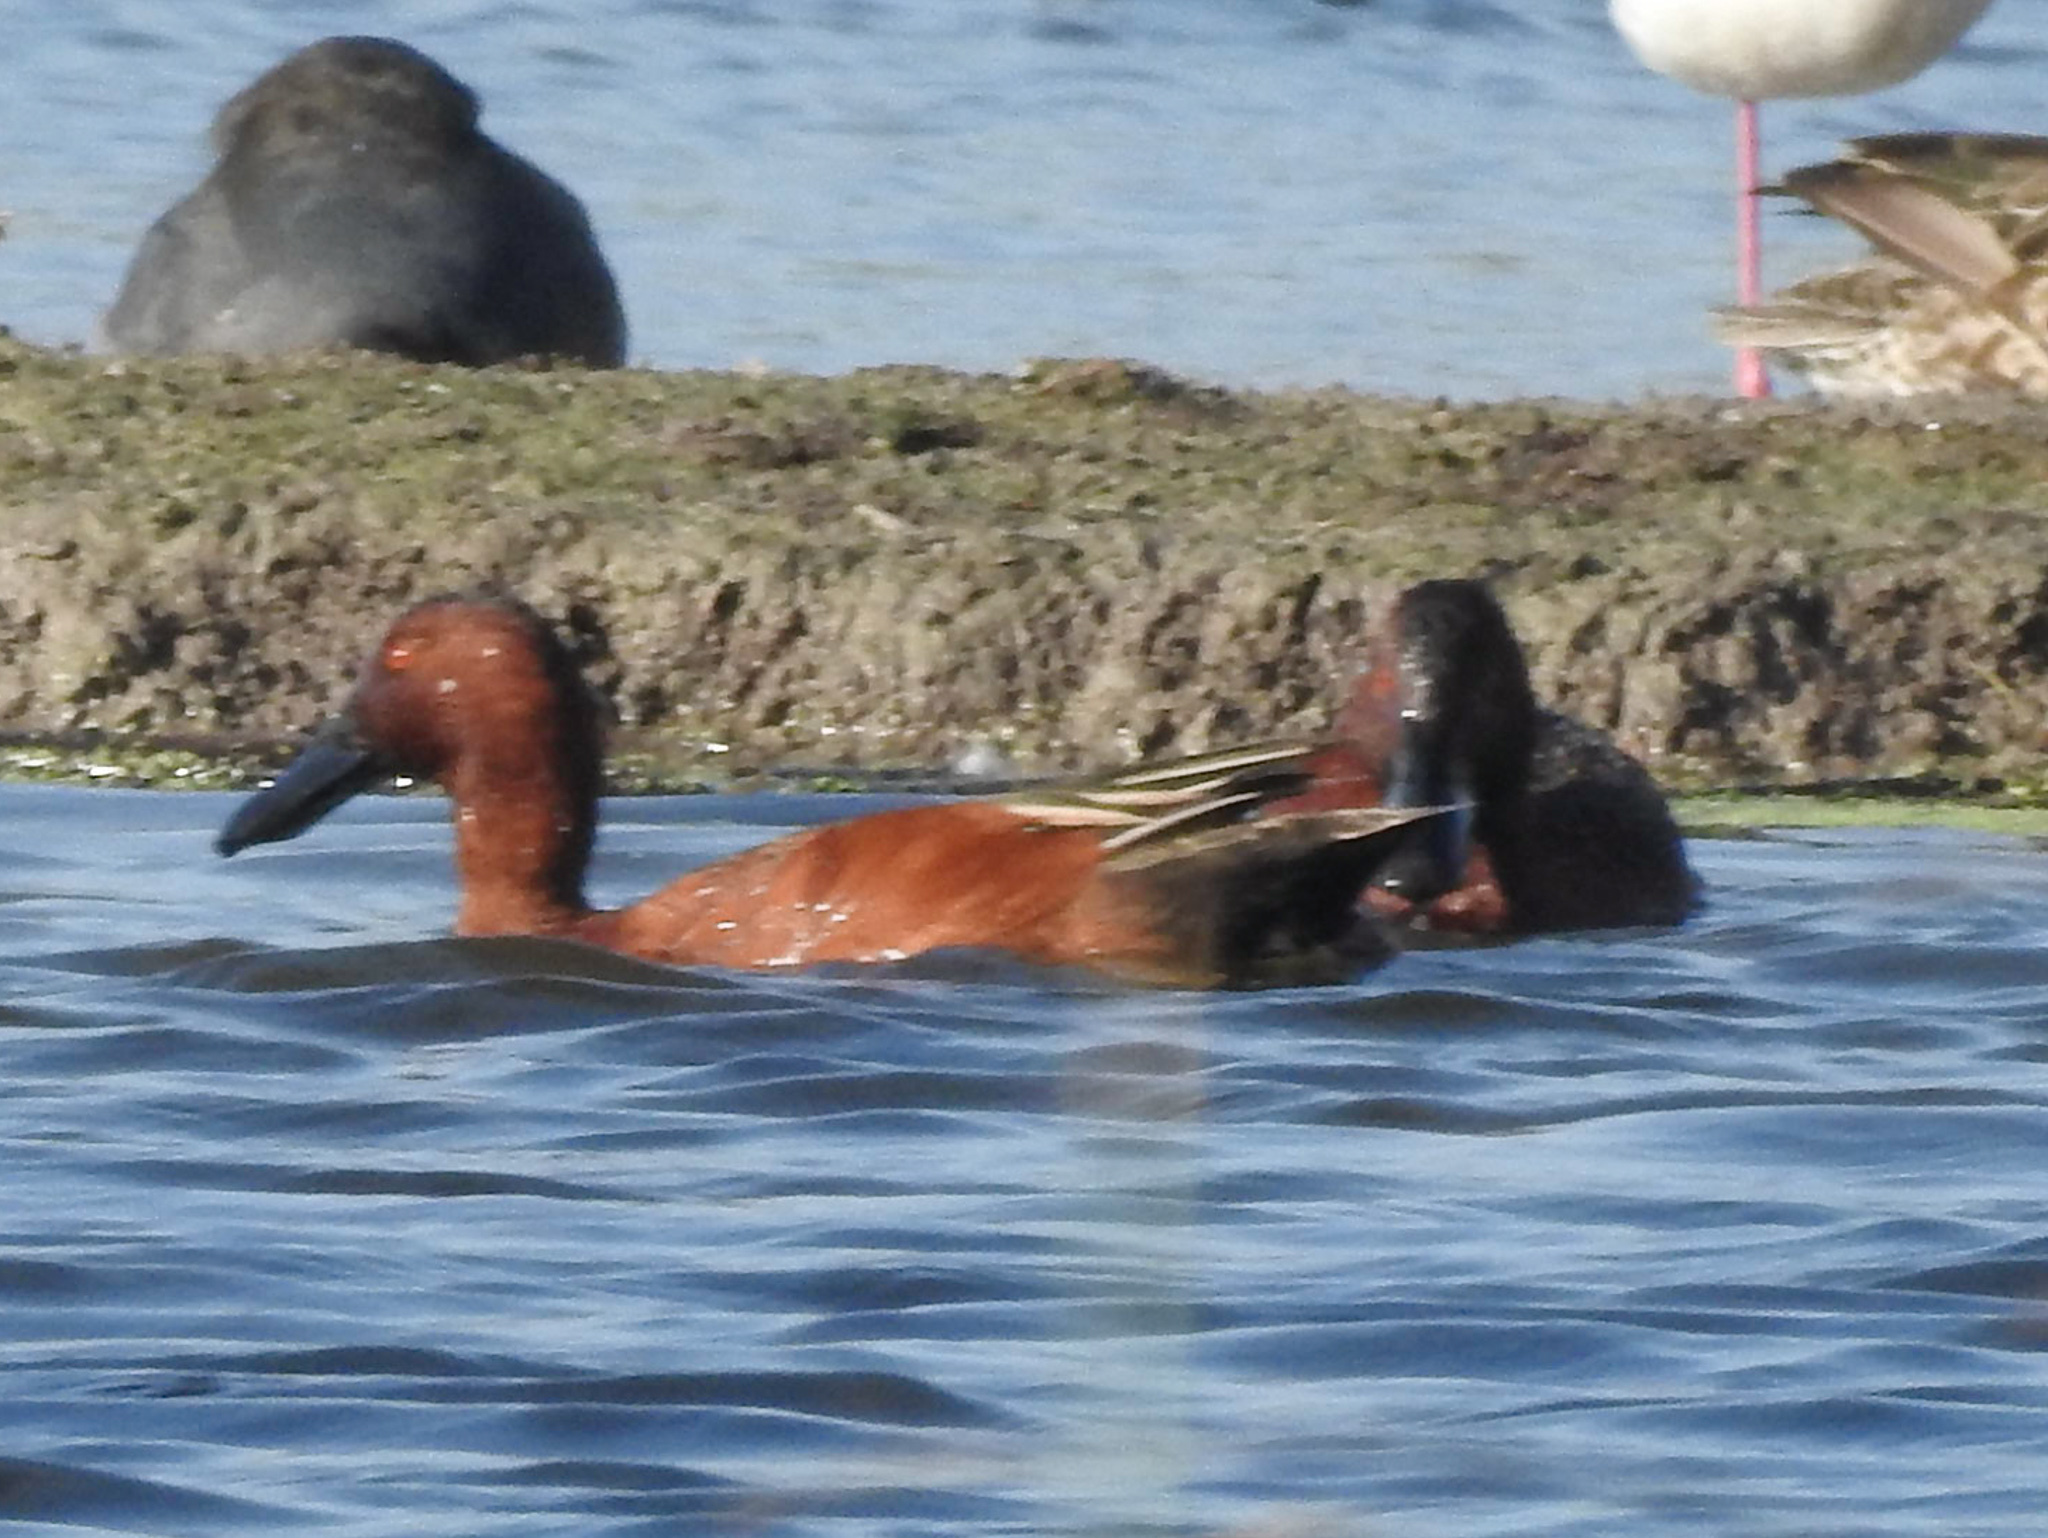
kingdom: Animalia
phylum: Chordata
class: Aves
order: Anseriformes
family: Anatidae
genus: Spatula
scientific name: Spatula cyanoptera
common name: Cinnamon teal
